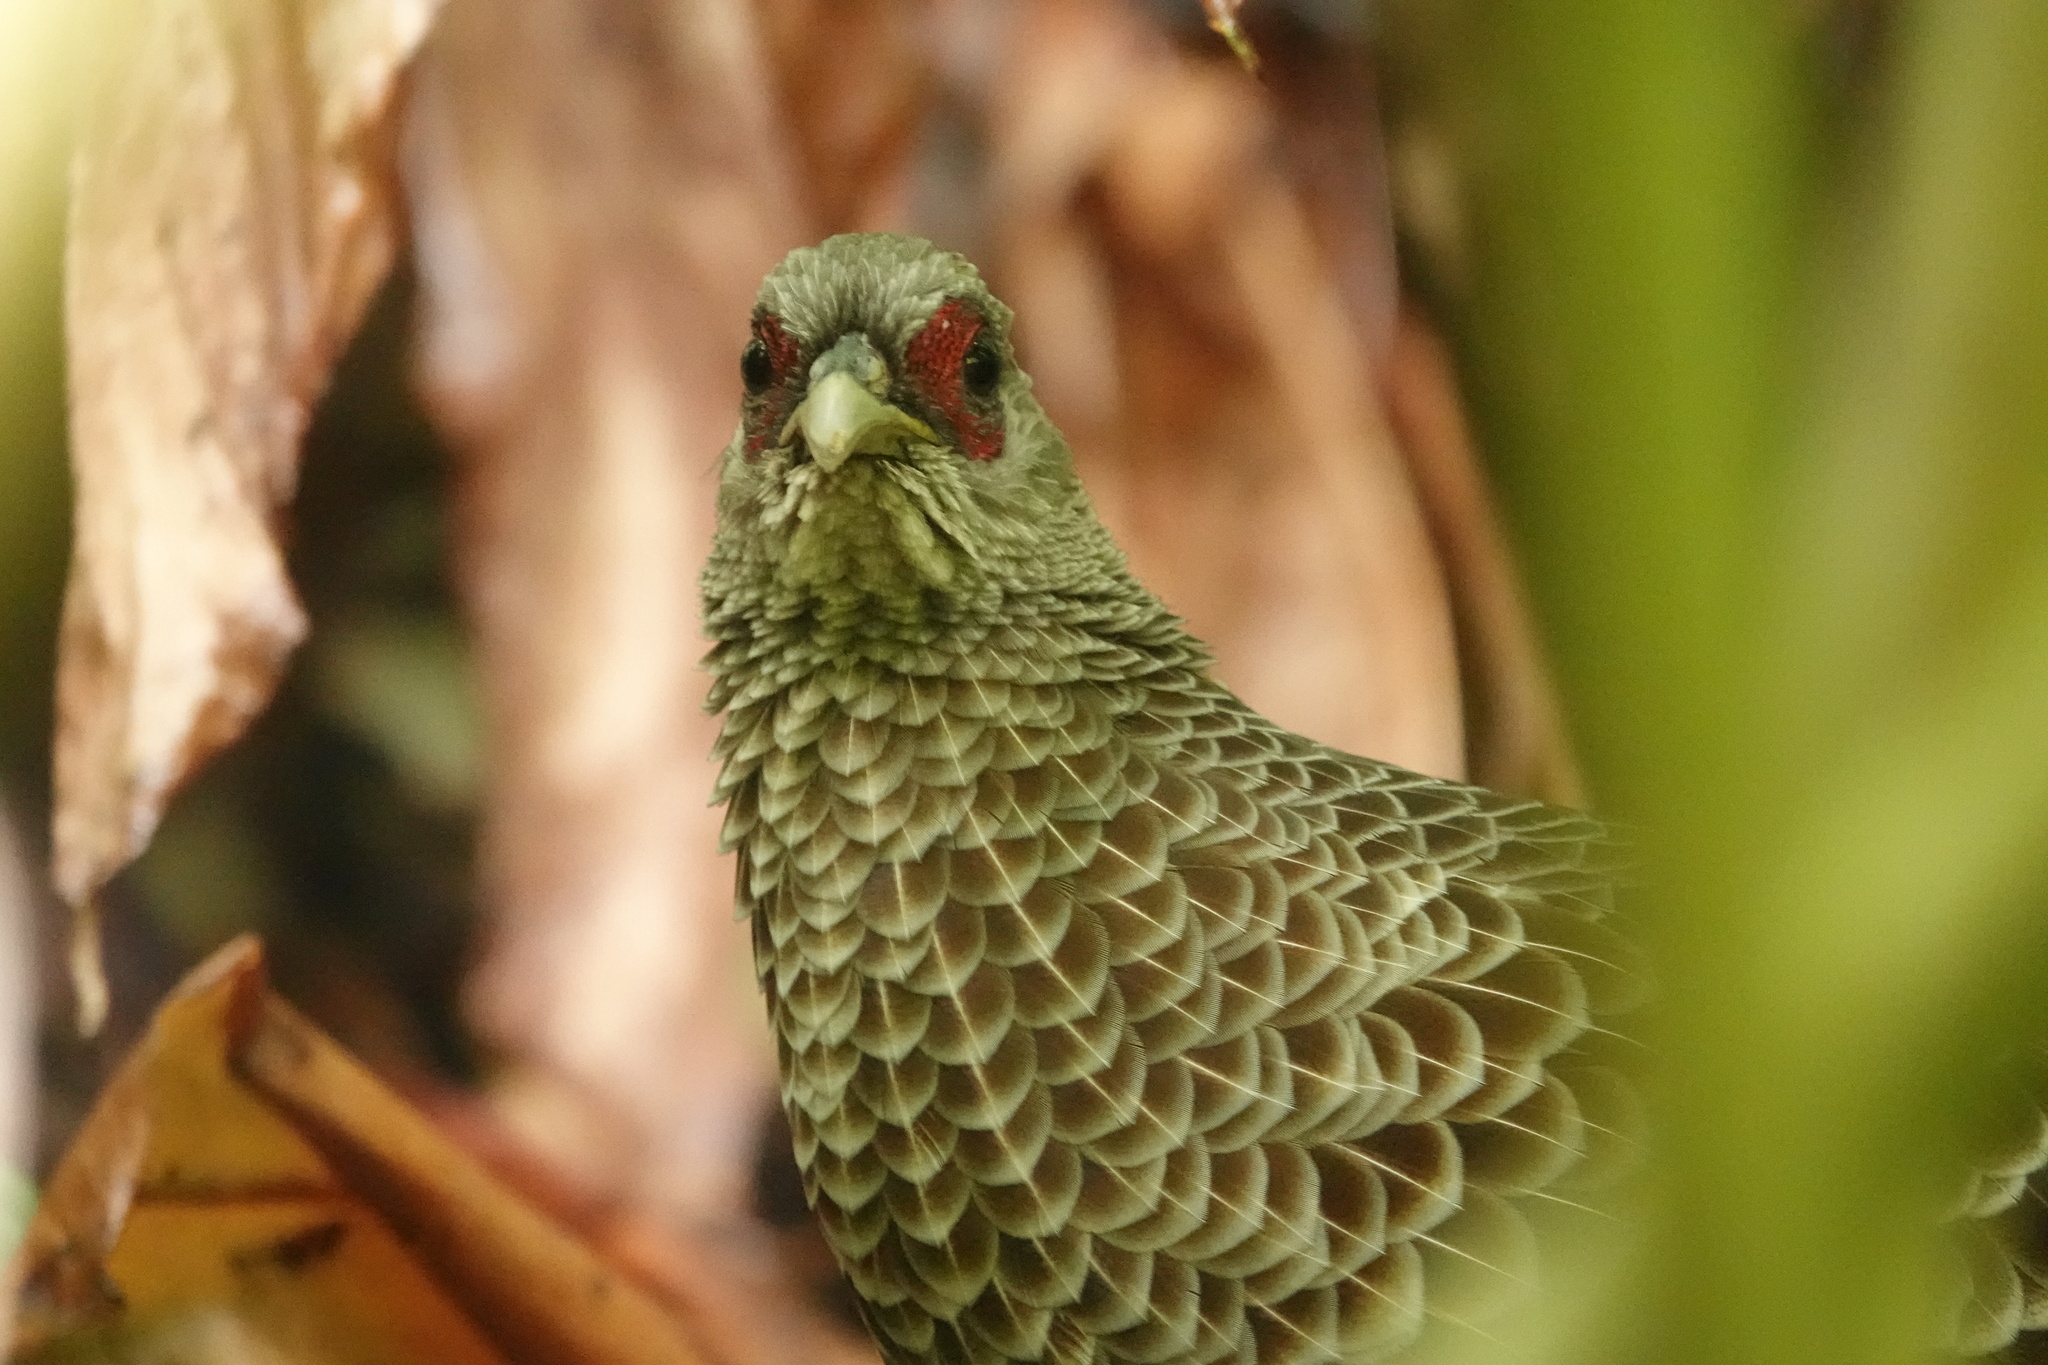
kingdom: Animalia
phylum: Chordata
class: Aves
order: Galliformes
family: Phasianidae
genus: Lophura
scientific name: Lophura leucomelanos
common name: Kalij pheasant
